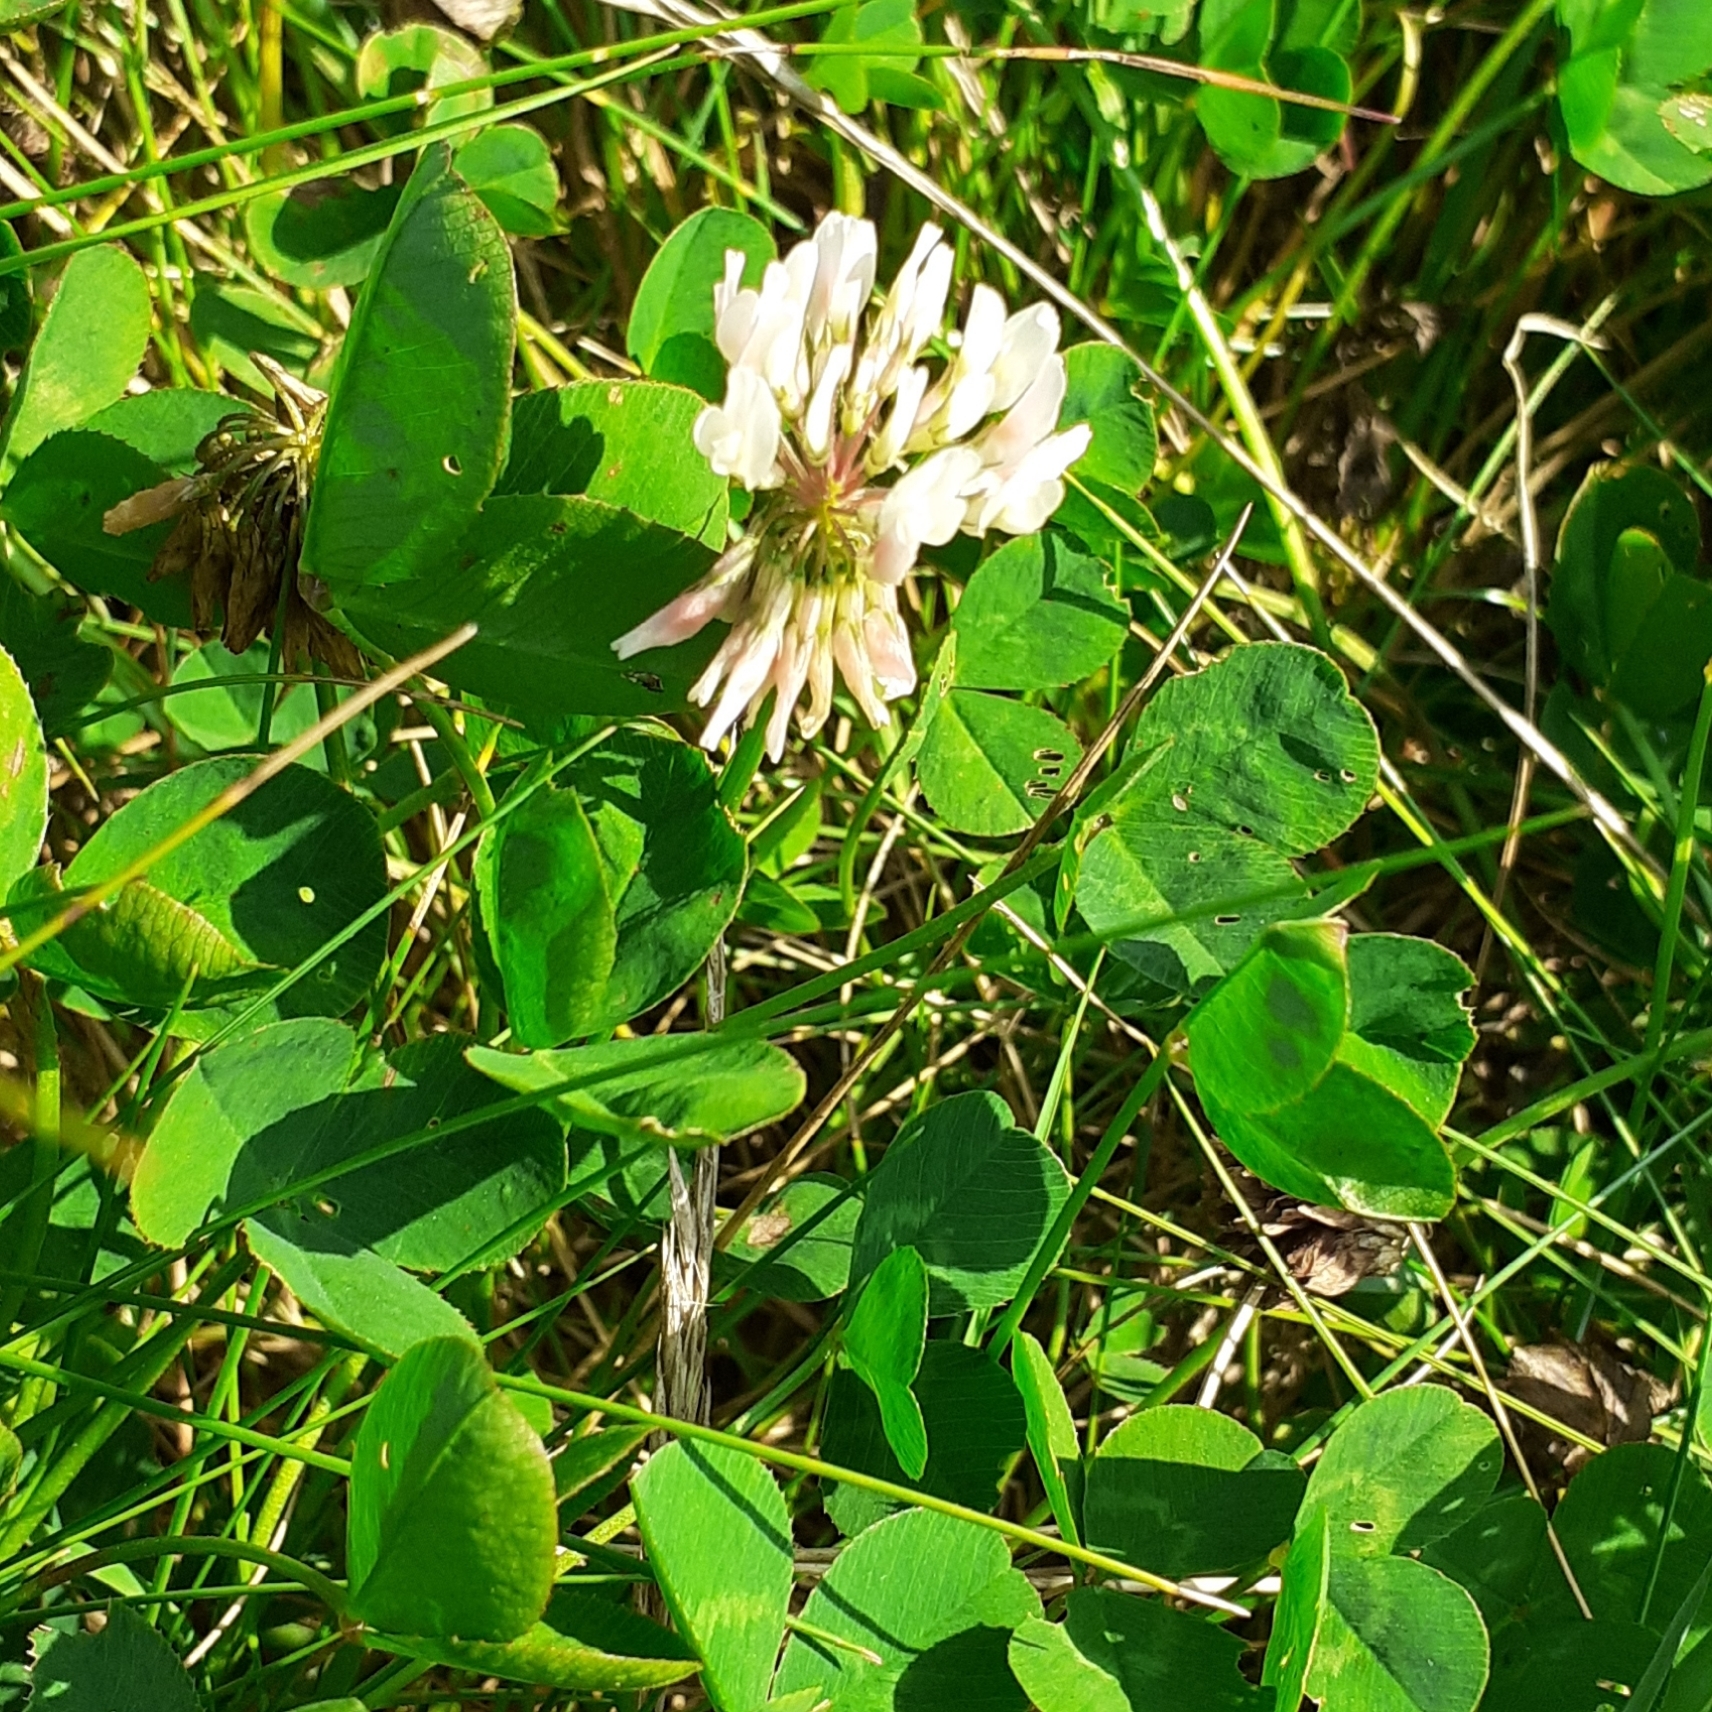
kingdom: Plantae
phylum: Tracheophyta
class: Magnoliopsida
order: Fabales
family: Fabaceae
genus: Trifolium
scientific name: Trifolium repens
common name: White clover
